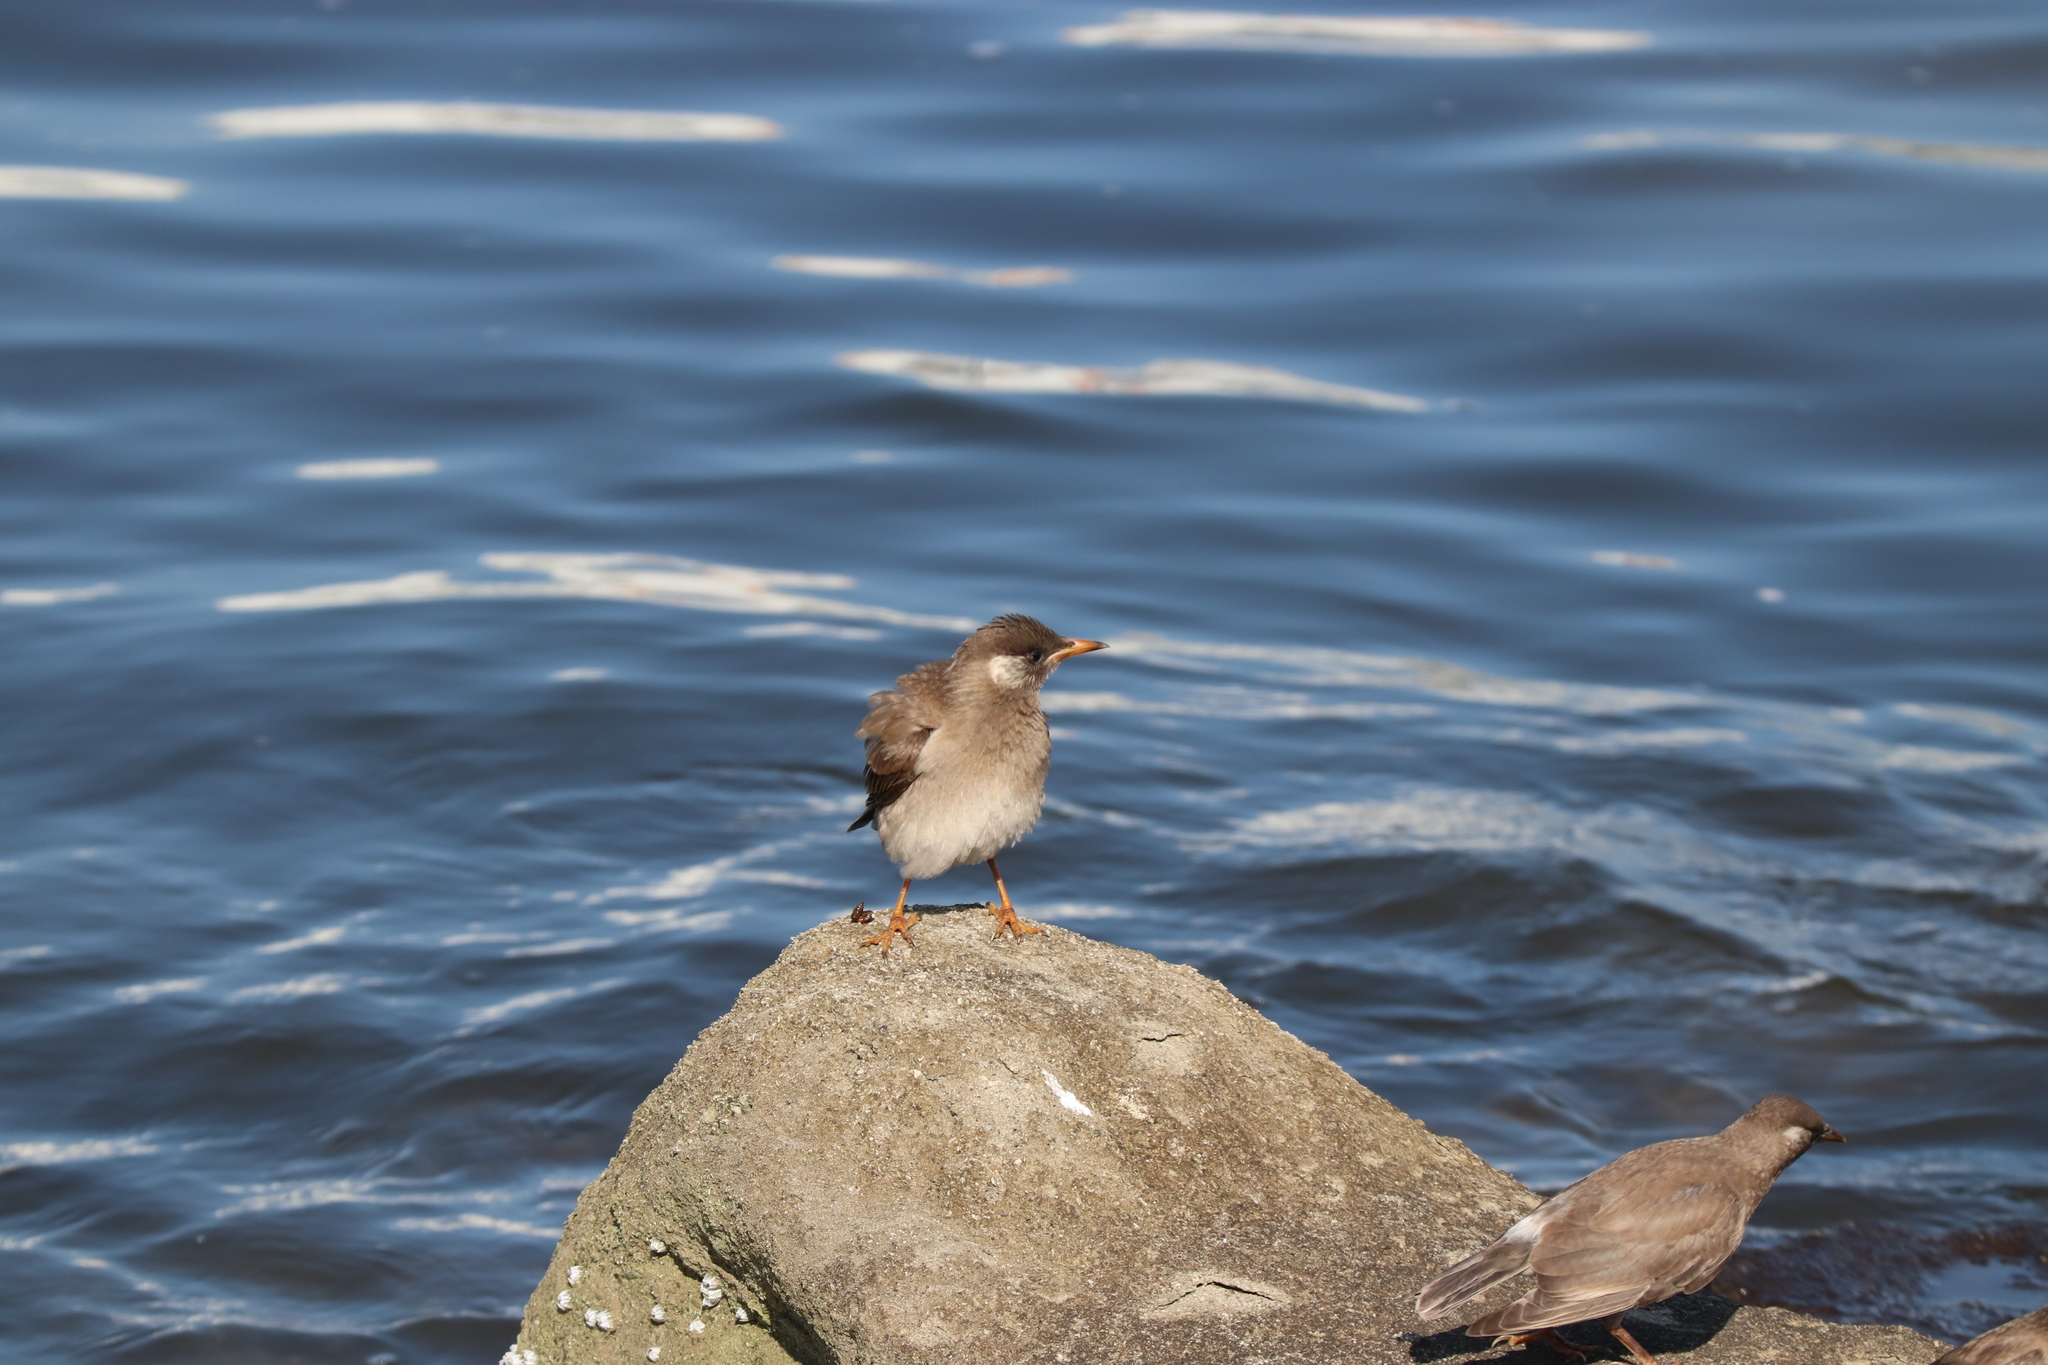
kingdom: Animalia
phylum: Chordata
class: Aves
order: Passeriformes
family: Sturnidae
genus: Spodiopsar
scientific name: Spodiopsar cineraceus
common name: White-cheeked starling
